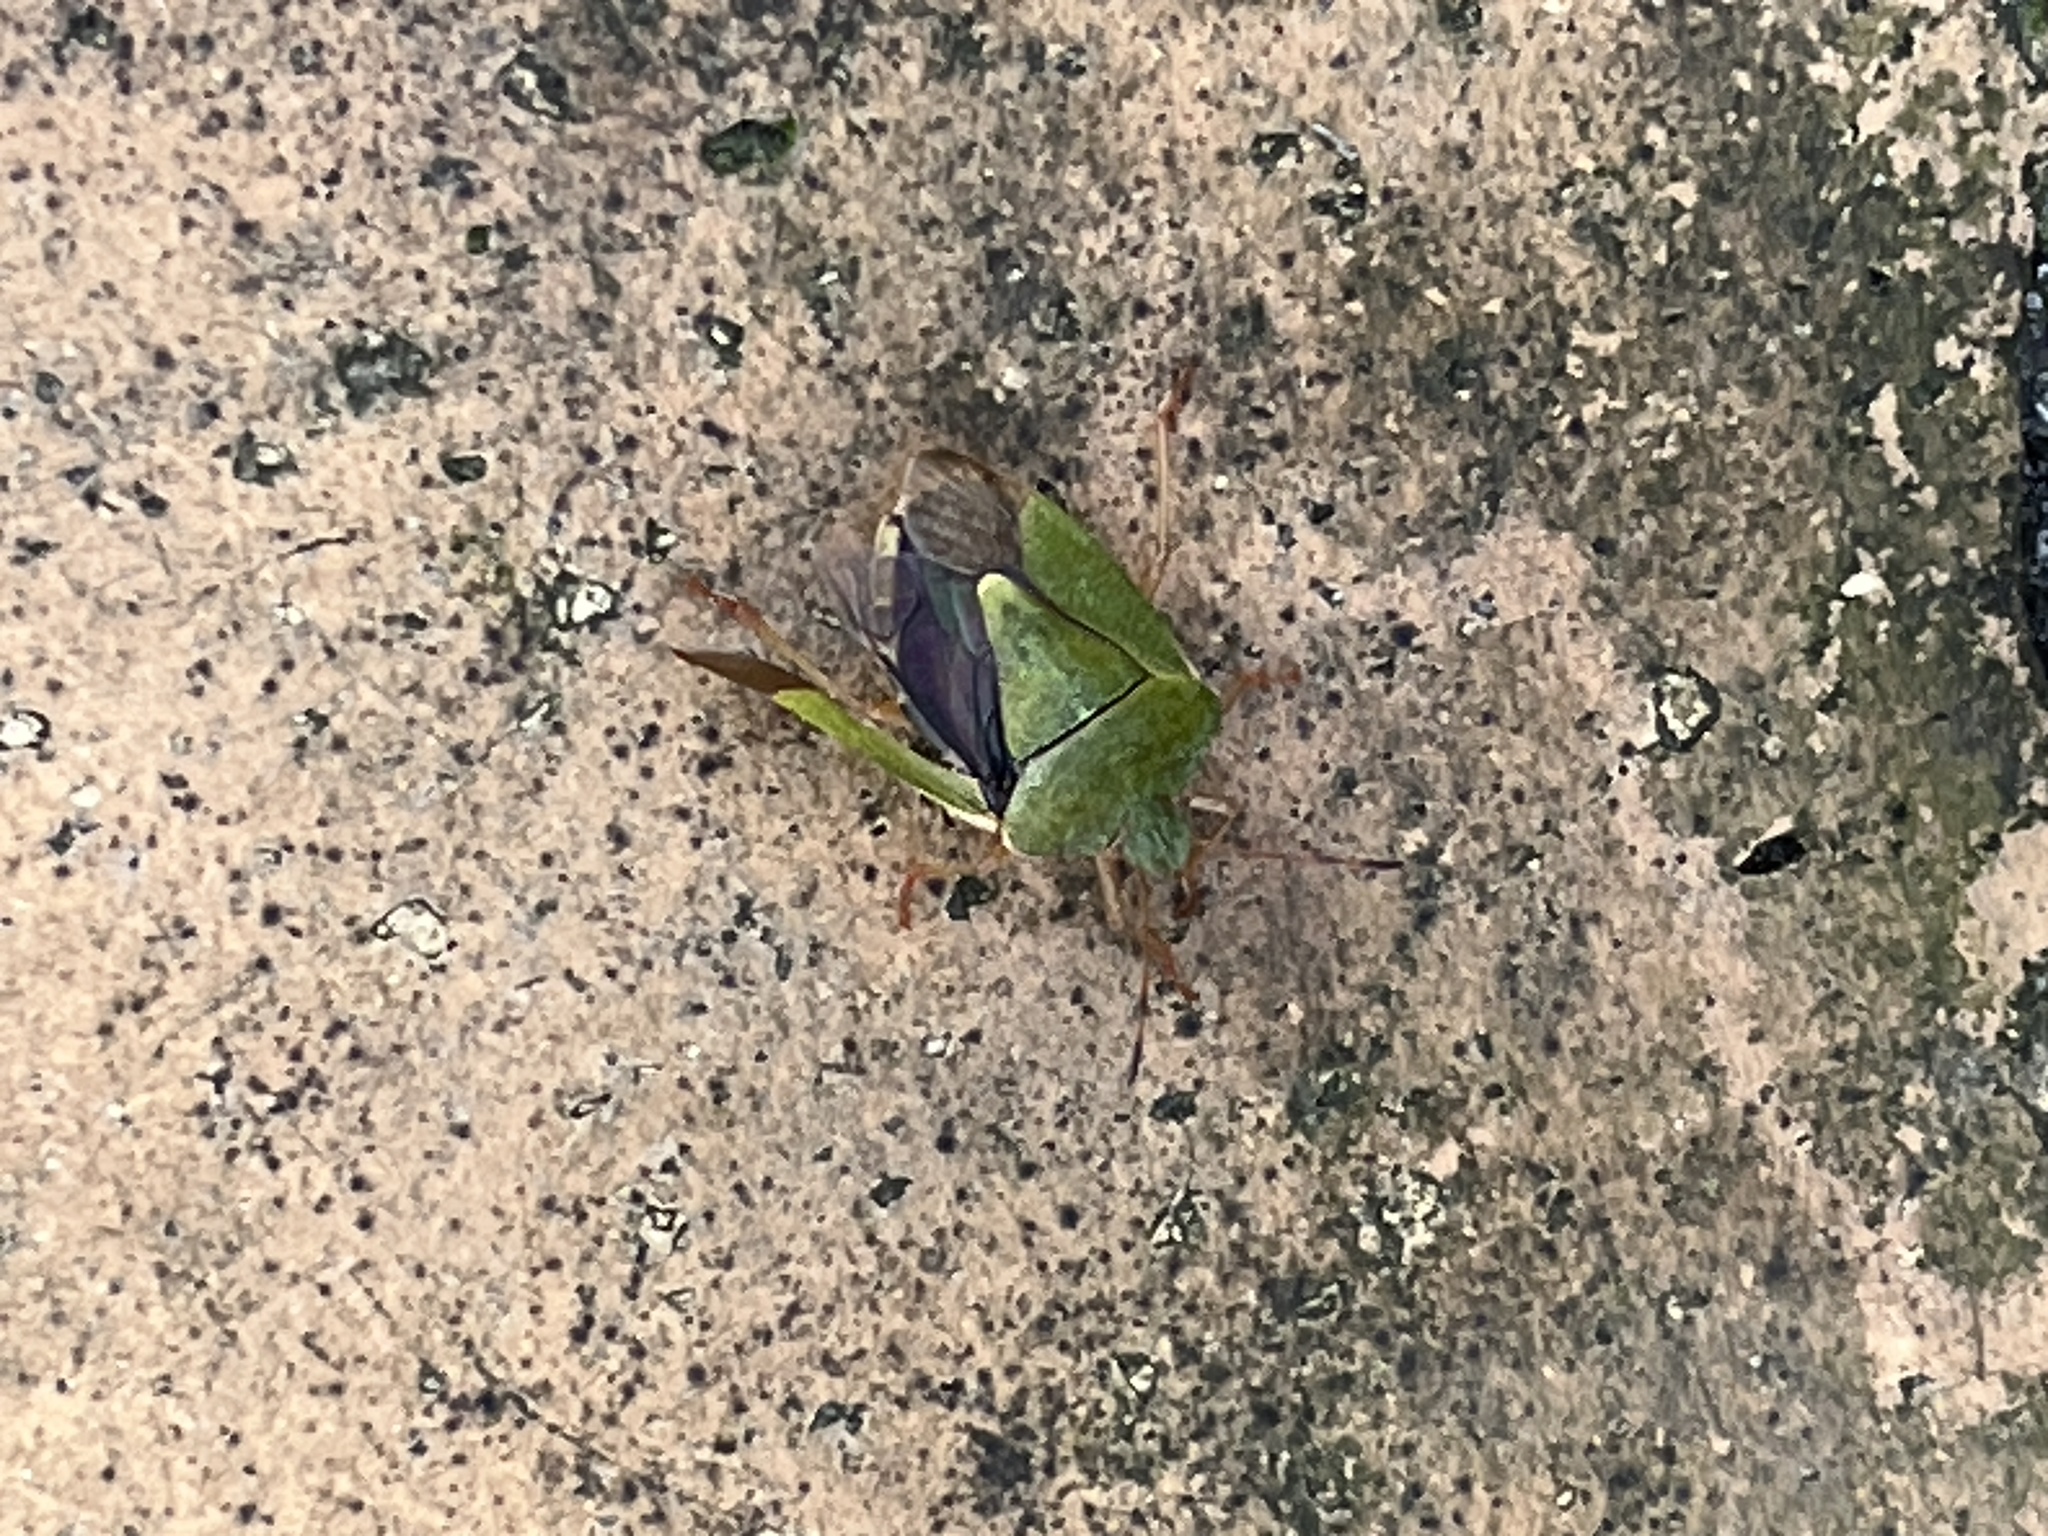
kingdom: Animalia
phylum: Arthropoda
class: Insecta
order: Hemiptera
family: Pentatomidae
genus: Palomena
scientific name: Palomena prasina
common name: Green shieldbug
